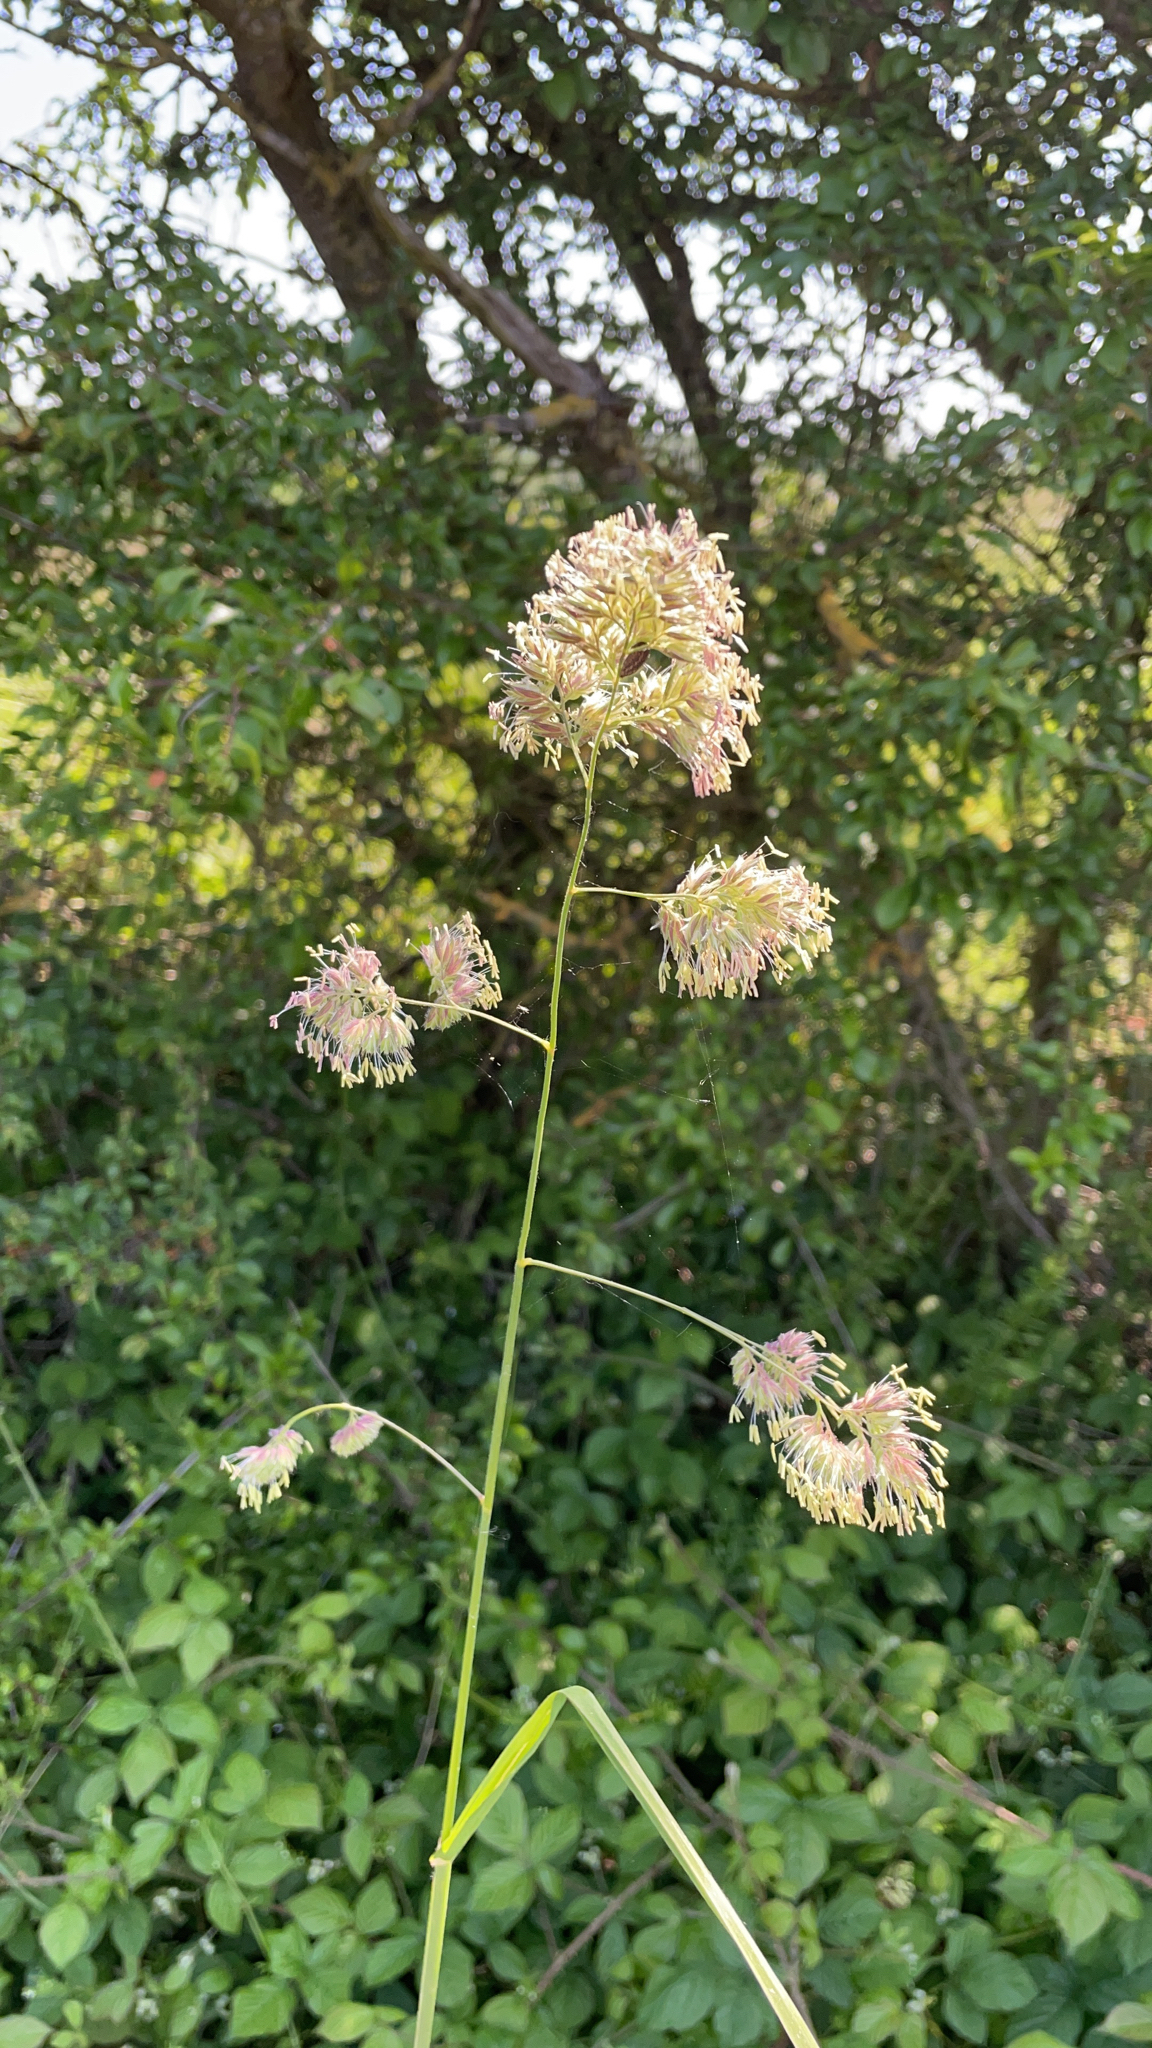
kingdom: Plantae
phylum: Tracheophyta
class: Liliopsida
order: Poales
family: Poaceae
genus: Dactylis
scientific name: Dactylis glomerata
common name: Orchardgrass
